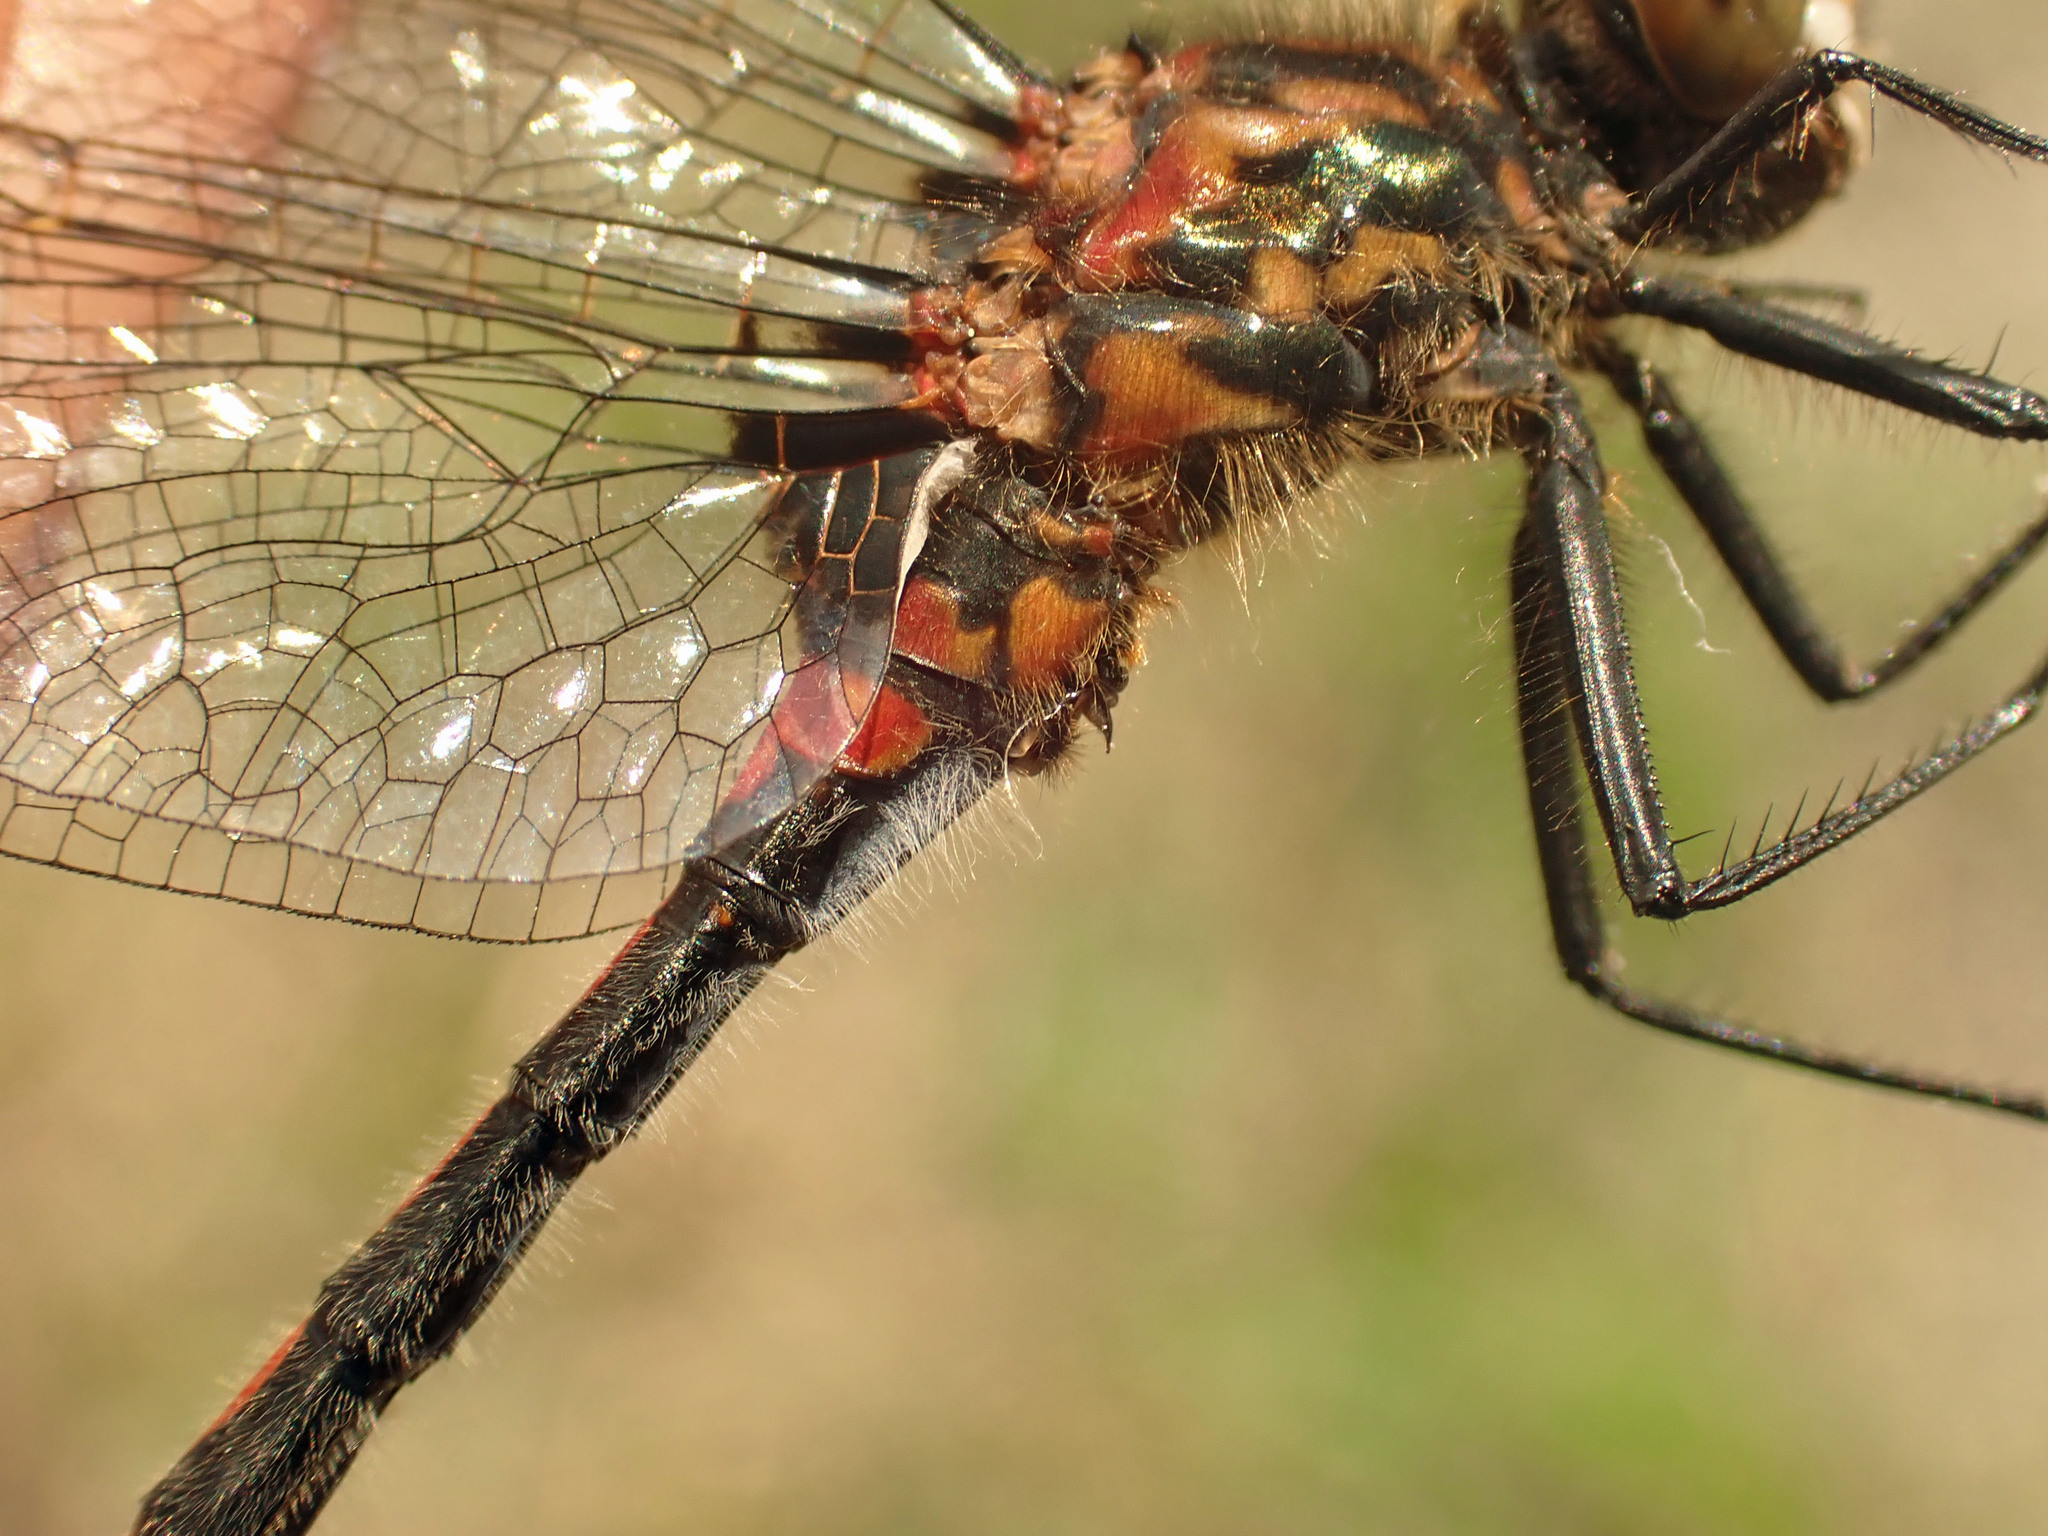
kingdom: Animalia
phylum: Arthropoda
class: Insecta
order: Odonata
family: Libellulidae
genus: Leucorrhinia
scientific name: Leucorrhinia hudsonica
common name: Hudsonian whiteface
